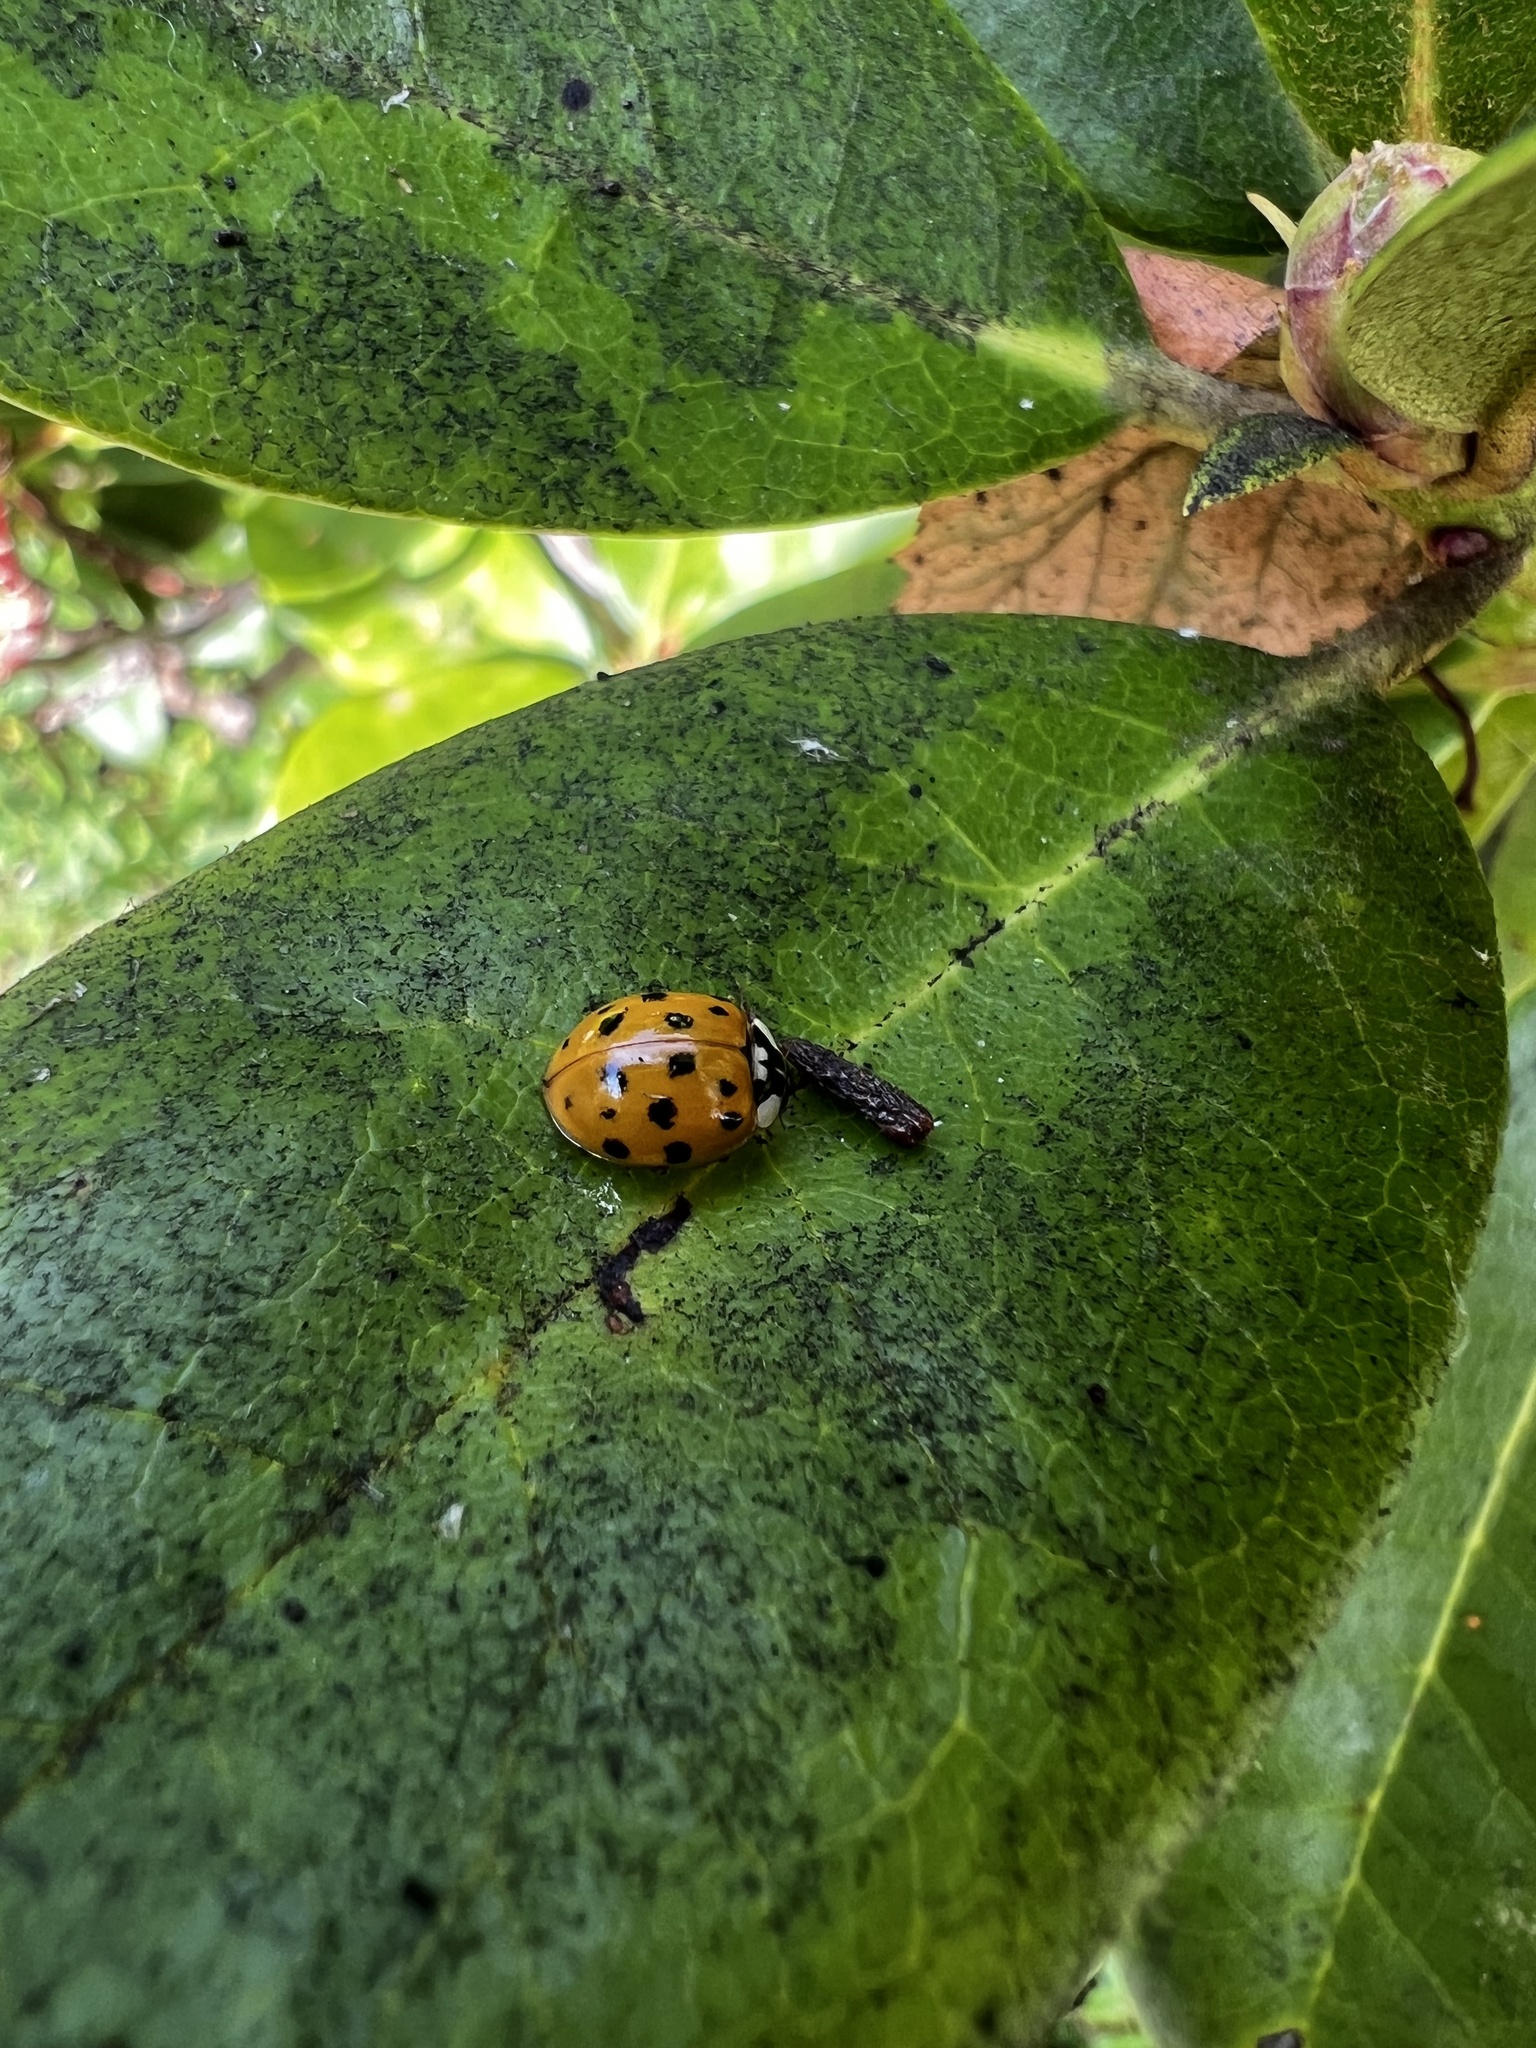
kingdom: Animalia
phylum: Arthropoda
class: Insecta
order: Coleoptera
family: Coccinellidae
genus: Harmonia
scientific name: Harmonia axyridis
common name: Harlequin ladybird
